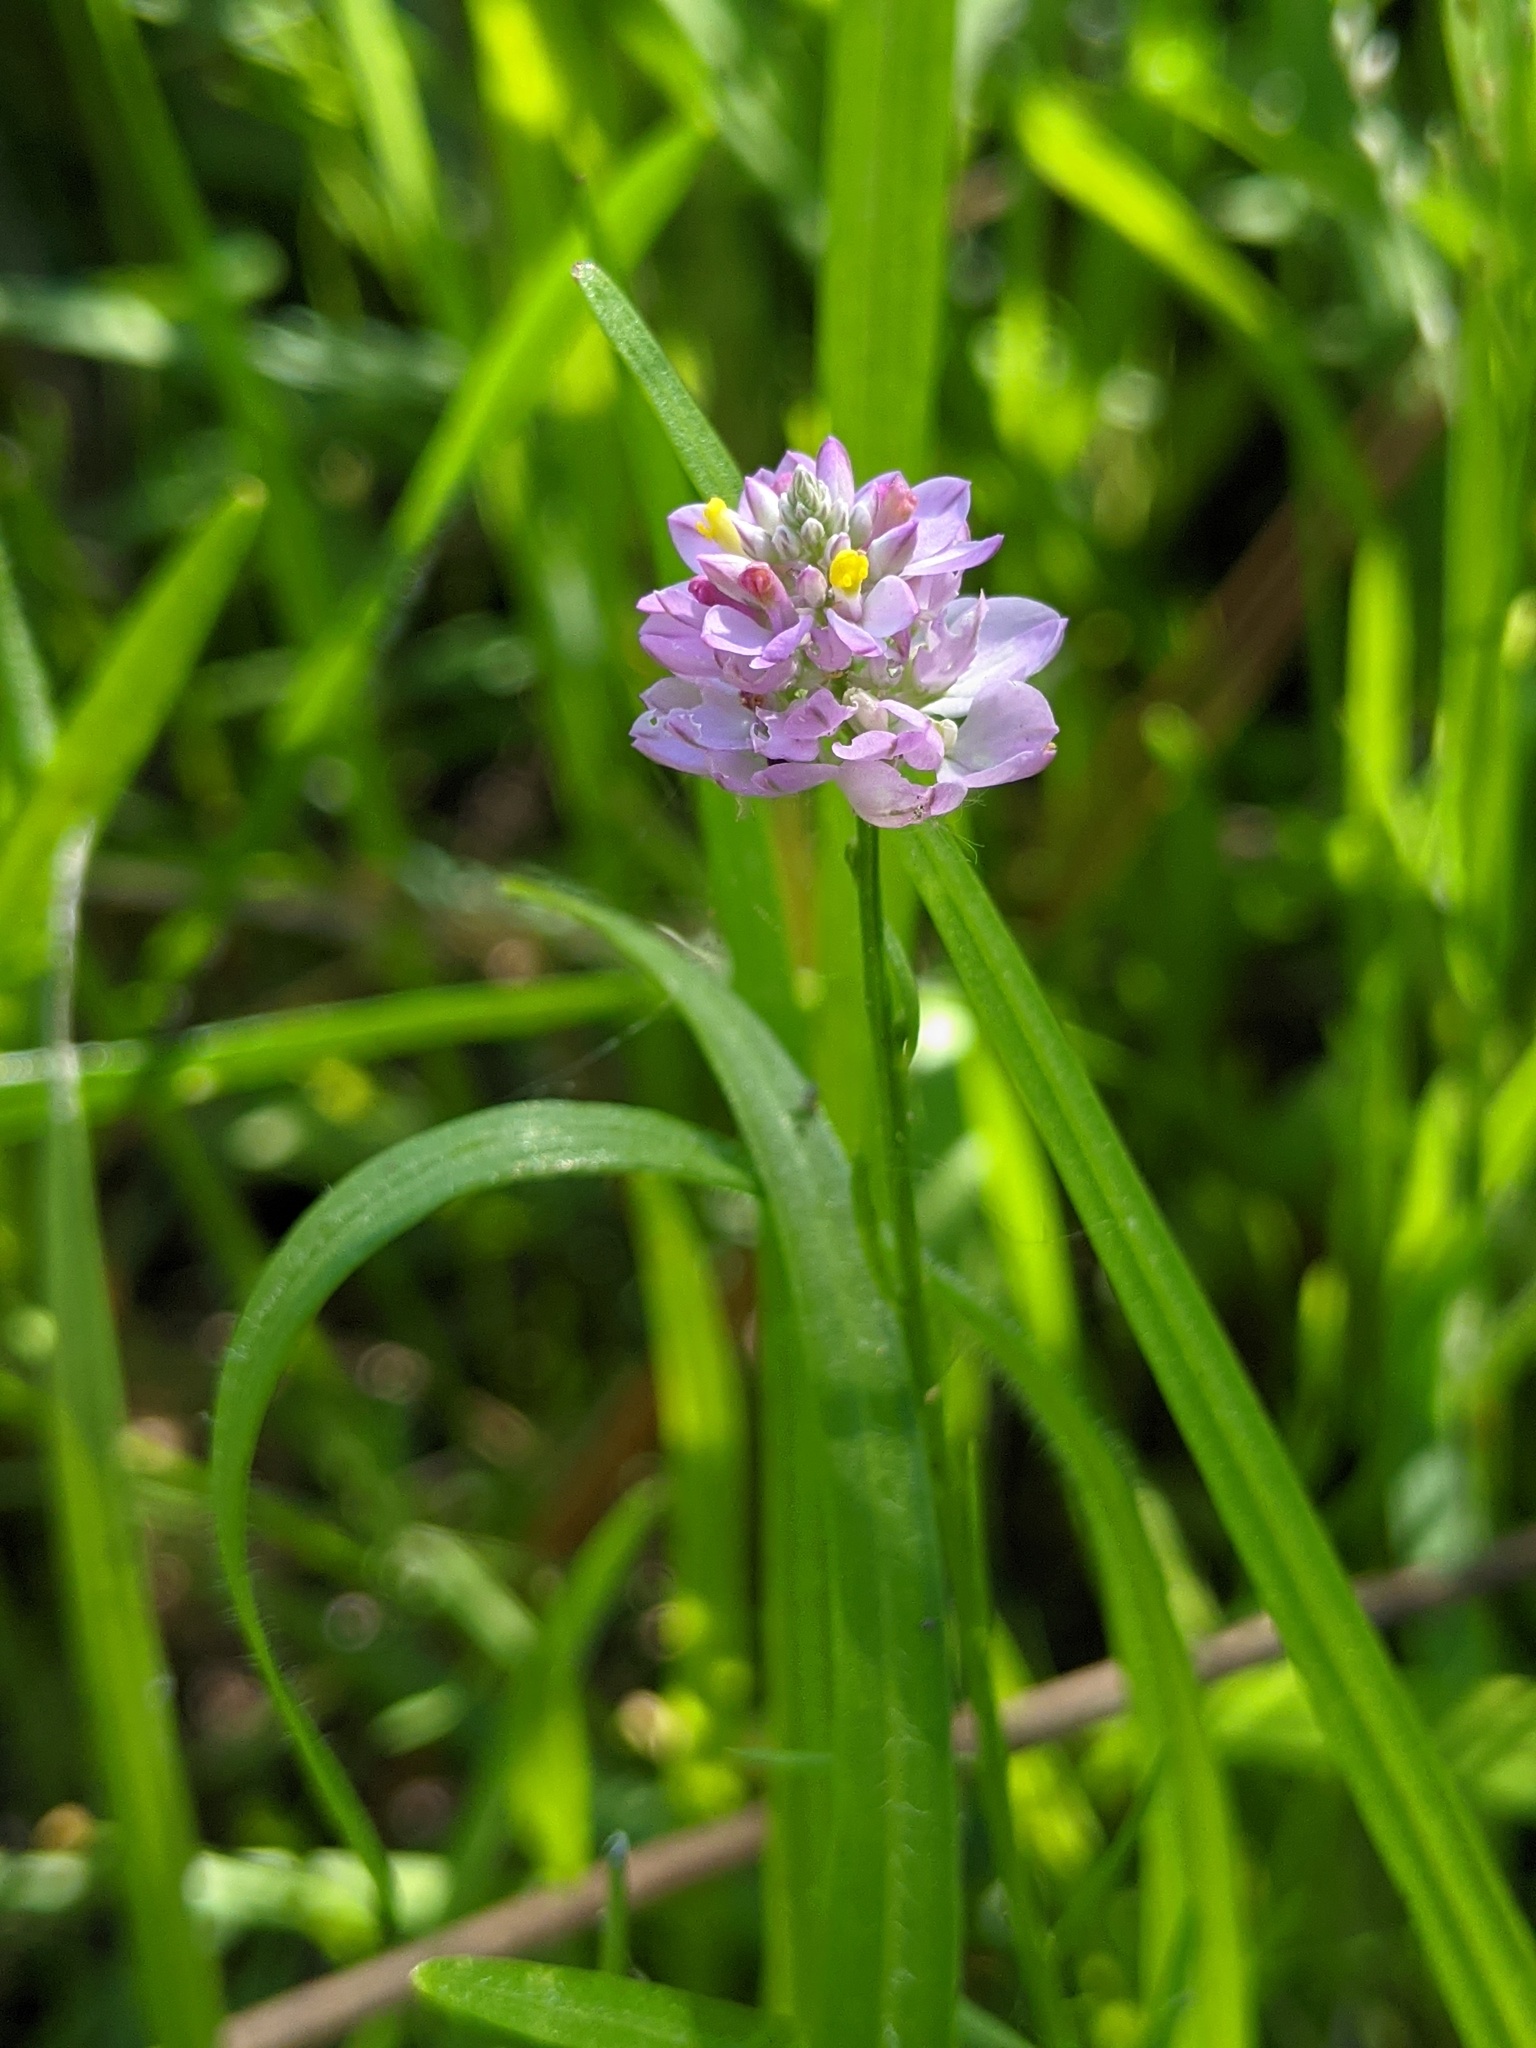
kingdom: Plantae
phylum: Tracheophyta
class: Magnoliopsida
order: Fabales
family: Polygalaceae
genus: Polygala
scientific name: Polygala mariana
